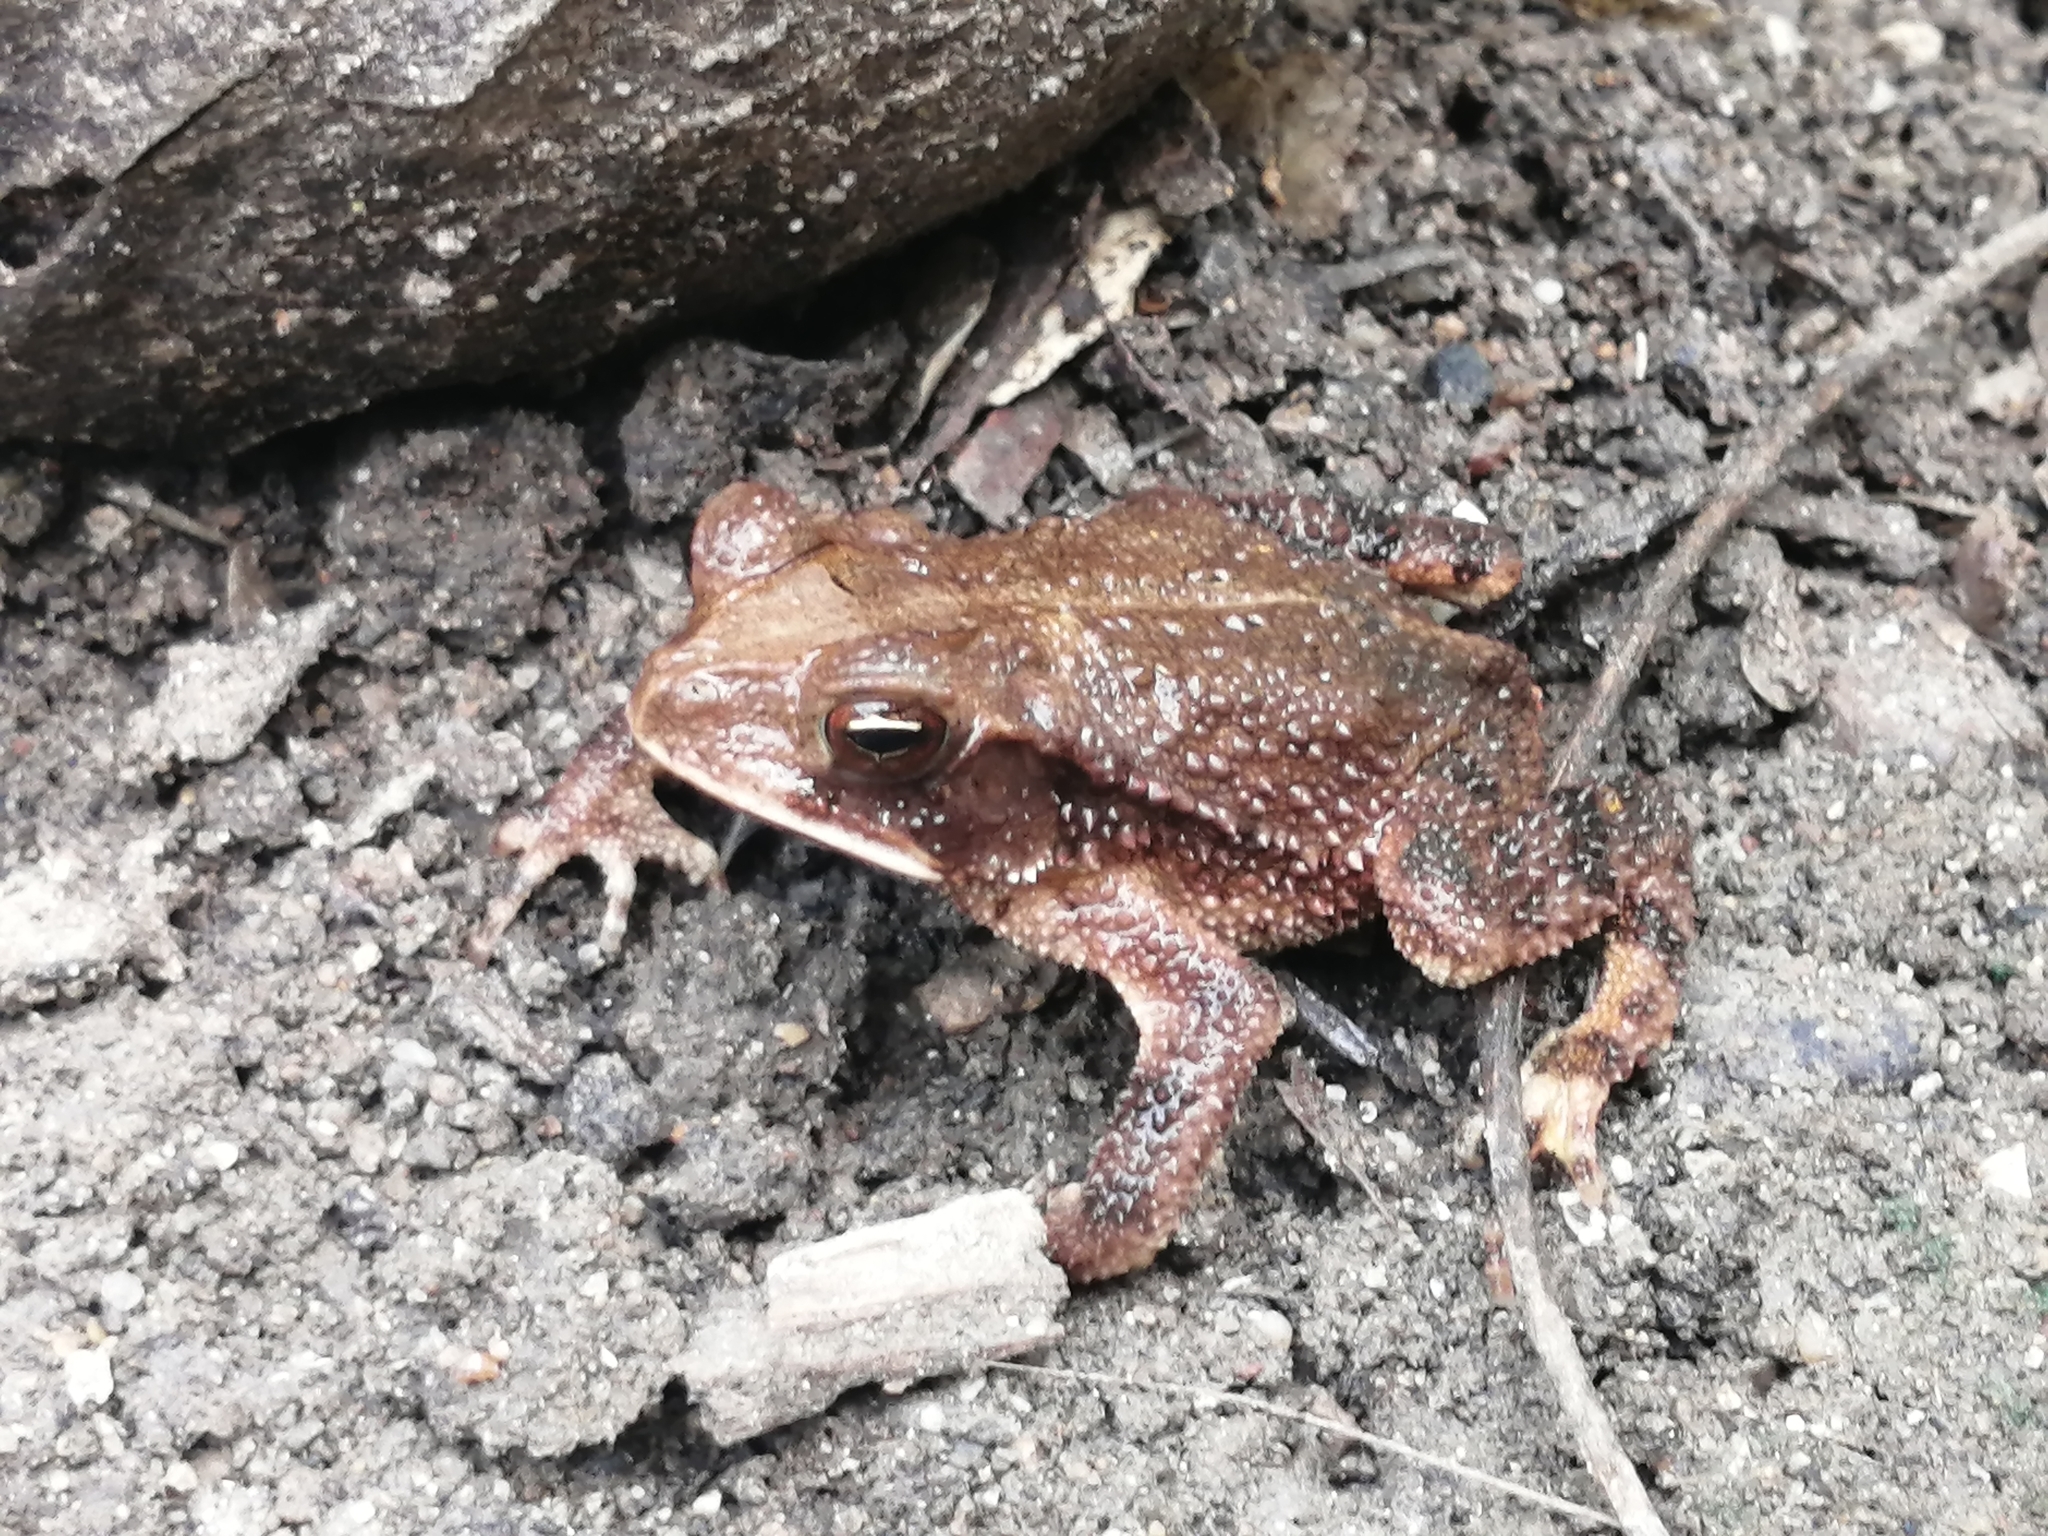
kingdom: Animalia
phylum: Chordata
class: Amphibia
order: Anura
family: Bufonidae
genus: Incilius
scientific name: Incilius valliceps
